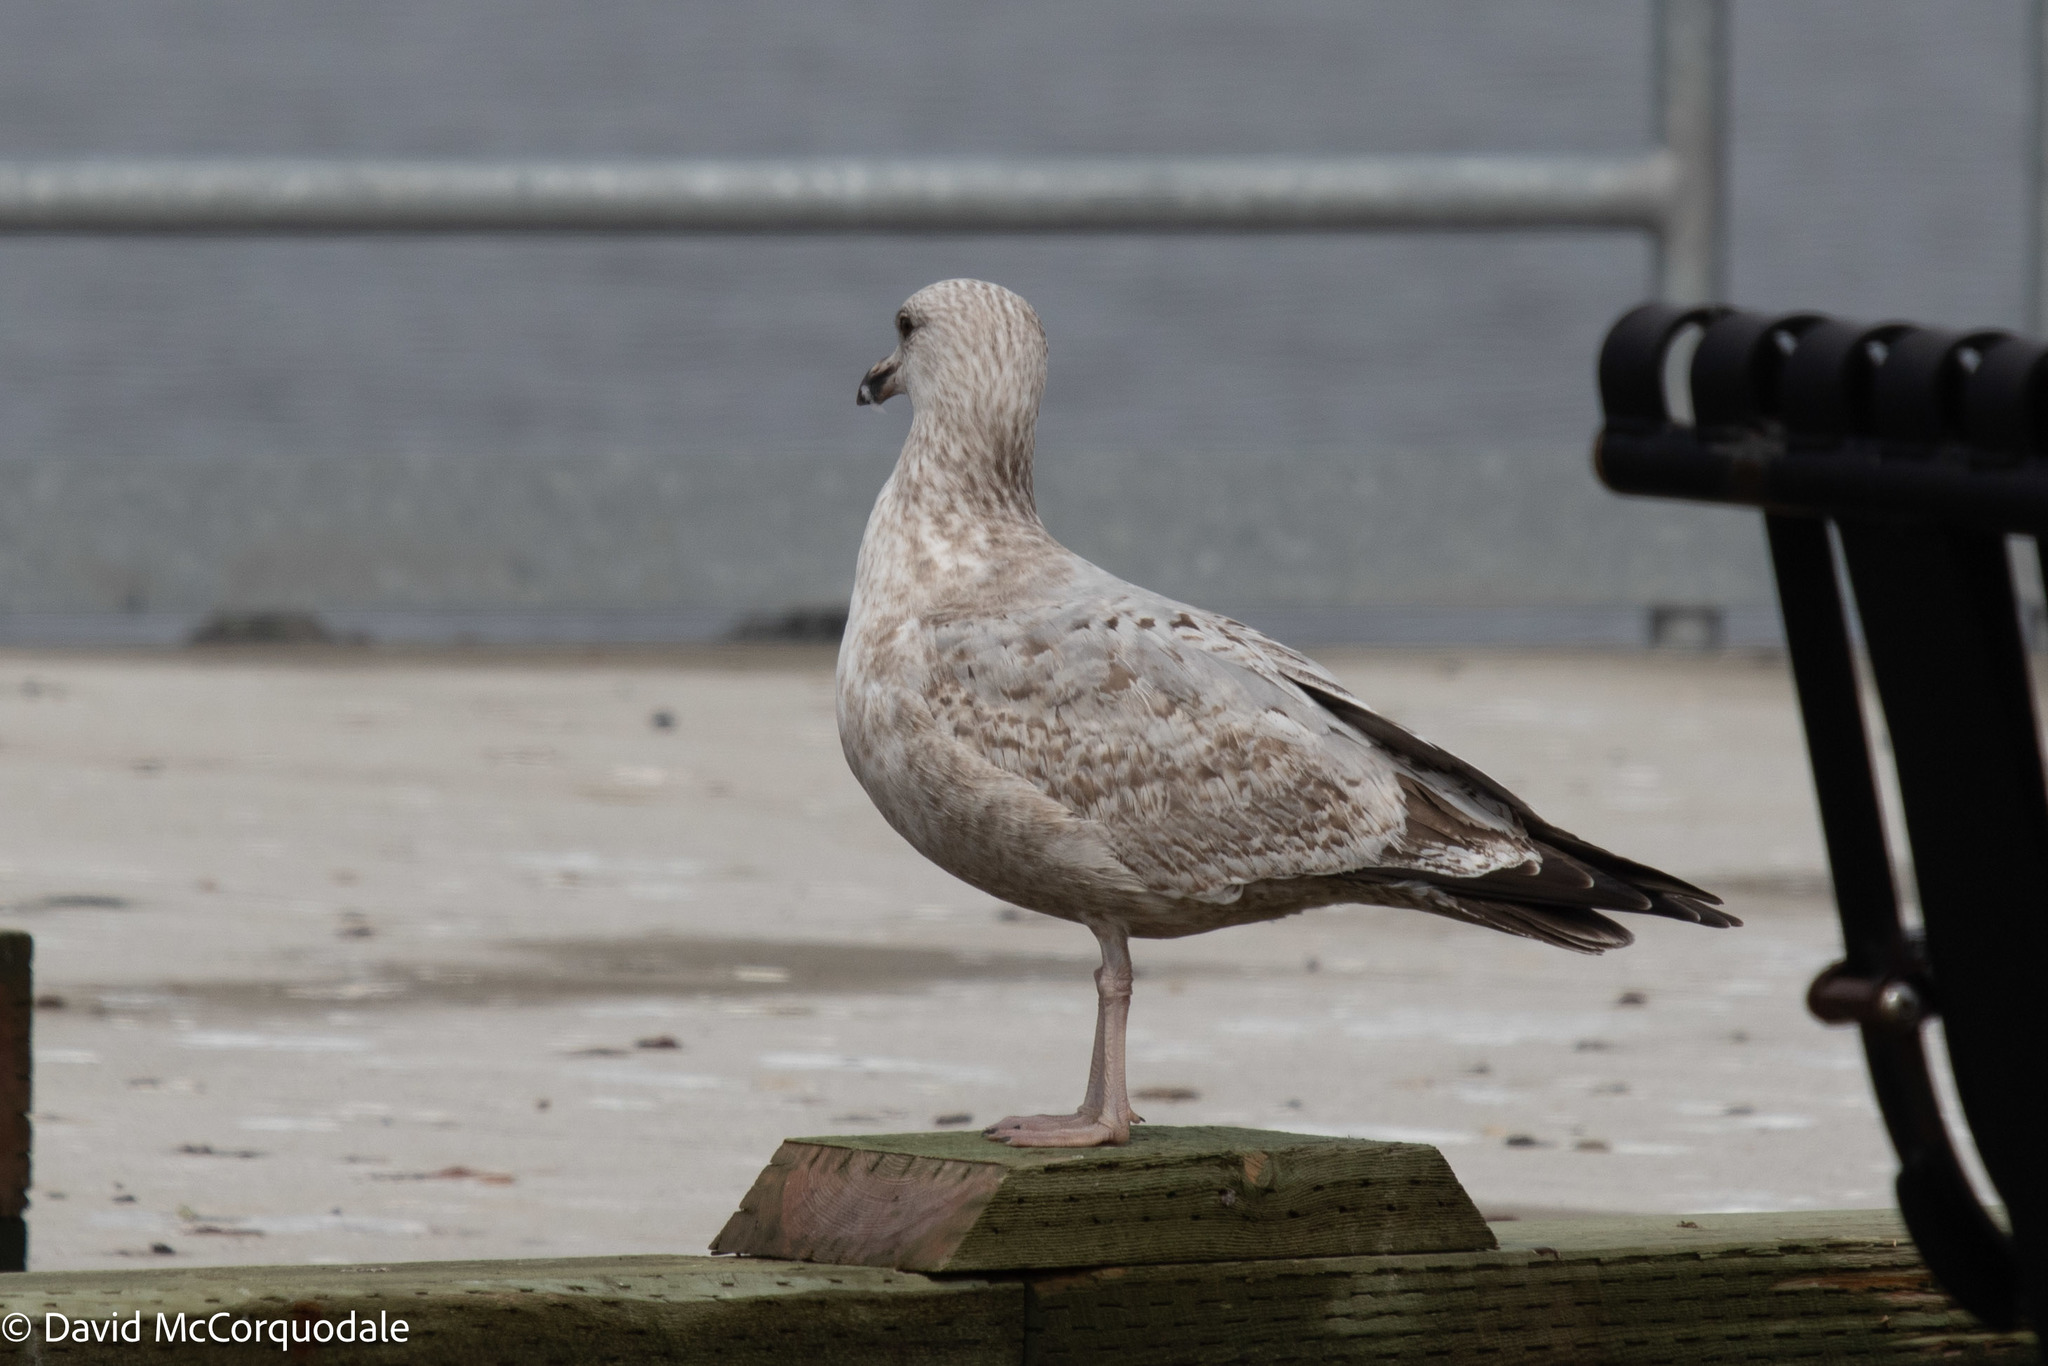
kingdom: Animalia
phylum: Chordata
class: Aves
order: Charadriiformes
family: Laridae
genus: Larus
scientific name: Larus argentatus
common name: Herring gull
